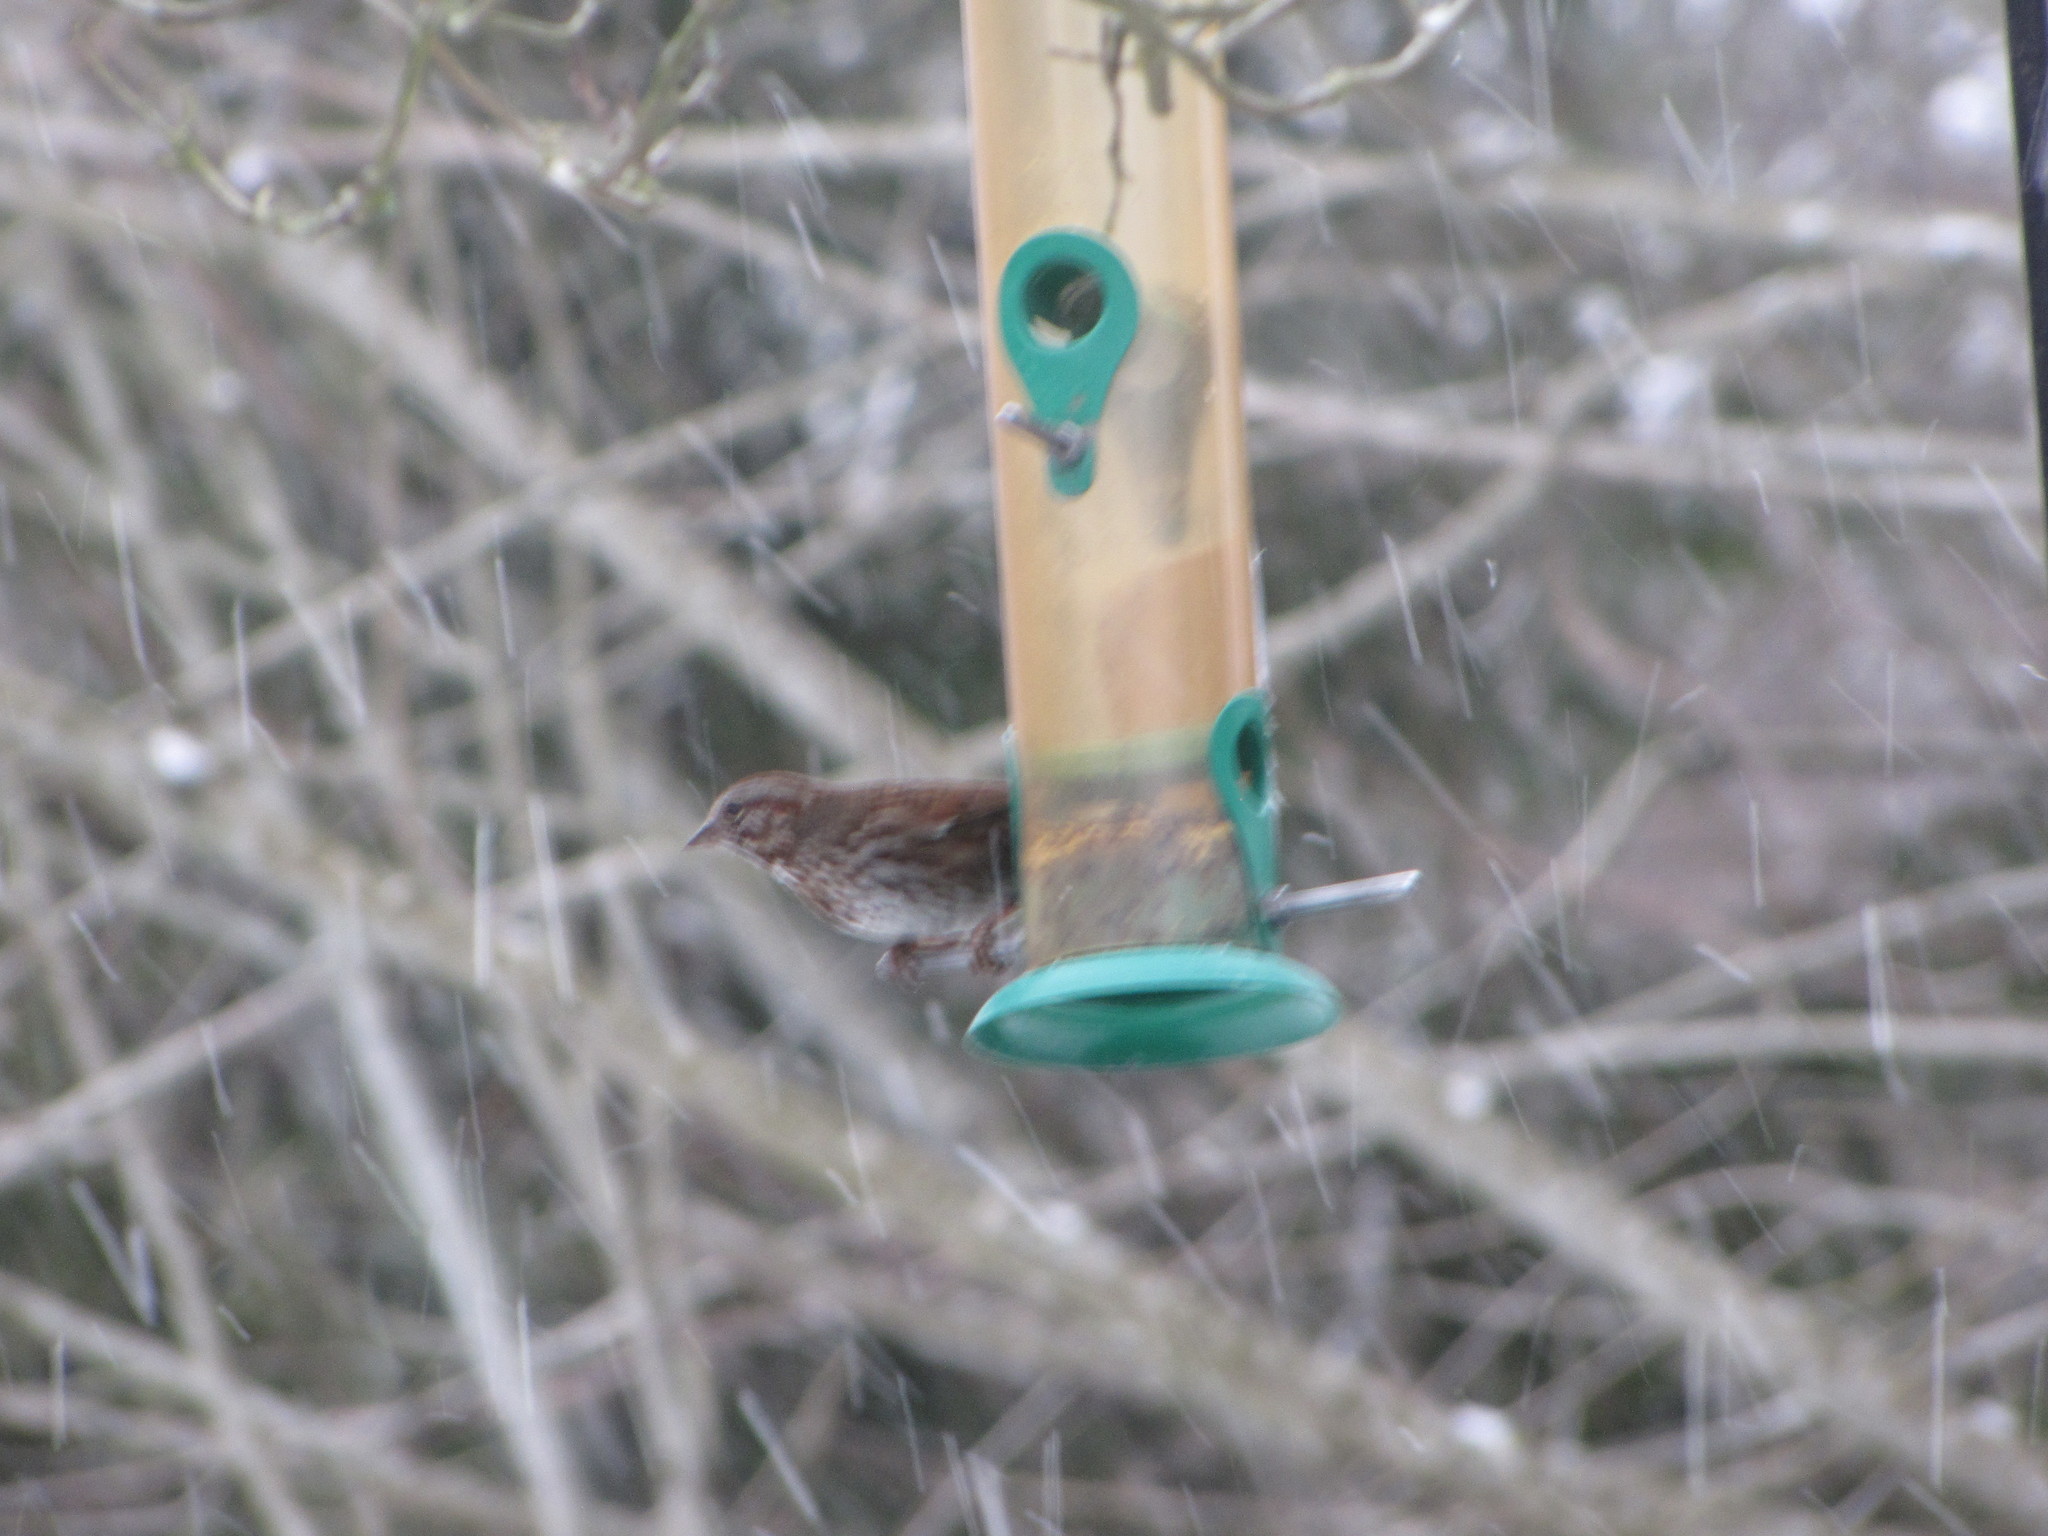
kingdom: Animalia
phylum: Chordata
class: Aves
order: Passeriformes
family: Passerellidae
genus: Melospiza
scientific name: Melospiza melodia
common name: Song sparrow
